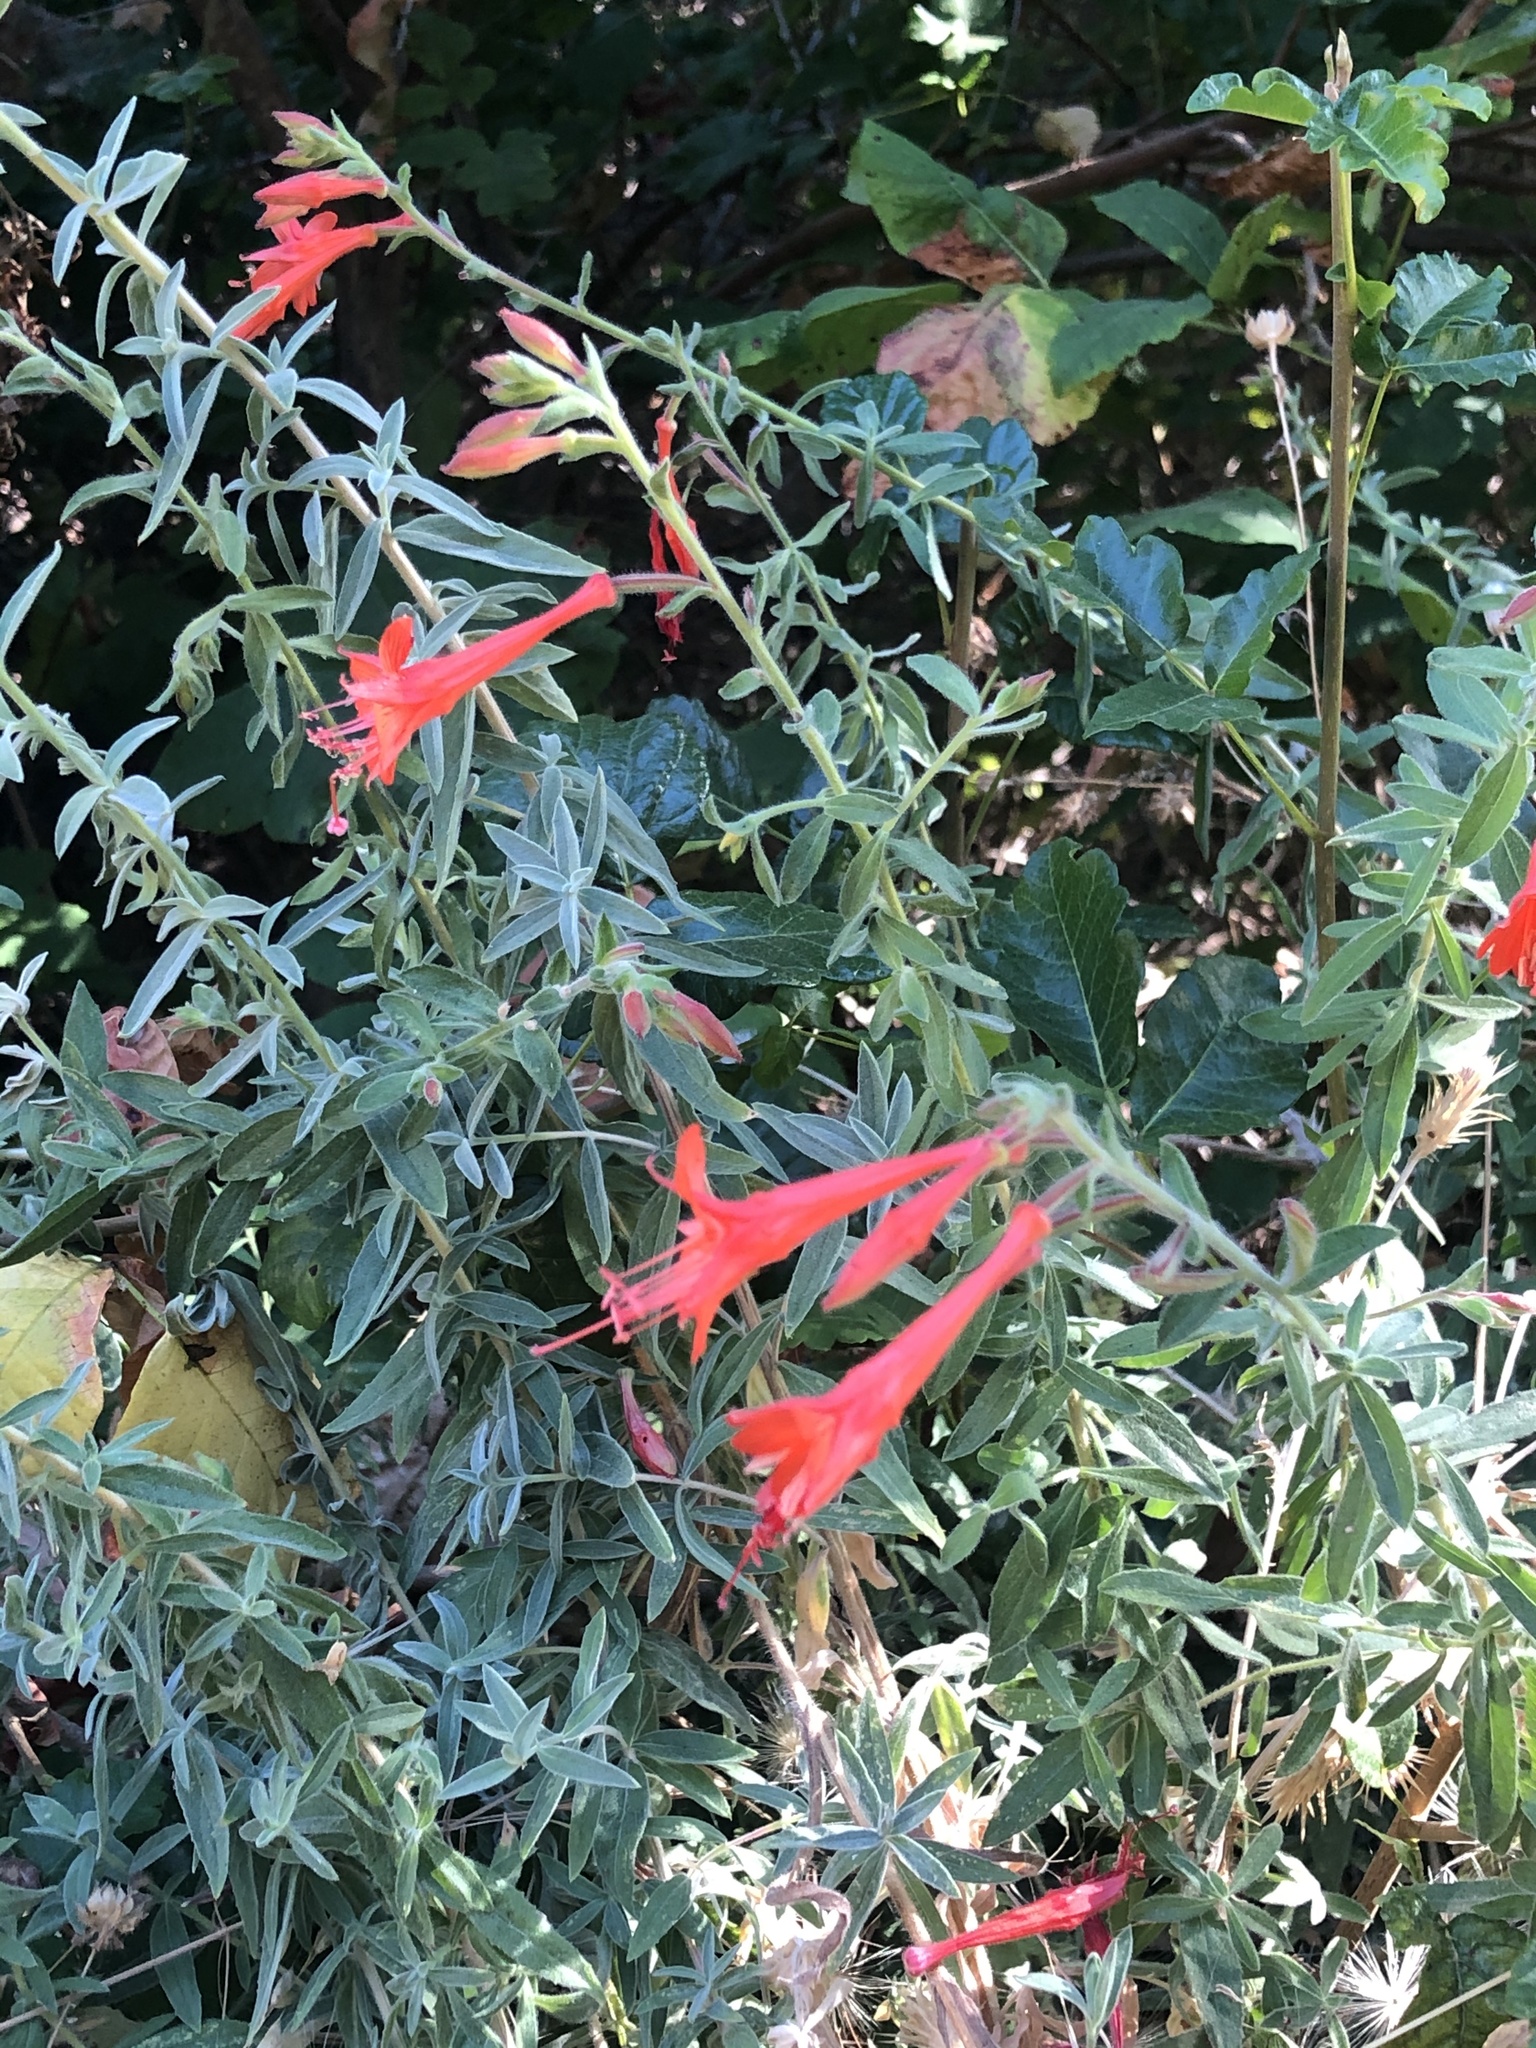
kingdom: Plantae
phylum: Tracheophyta
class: Magnoliopsida
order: Myrtales
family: Onagraceae
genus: Epilobium
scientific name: Epilobium canum
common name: California-fuchsia
